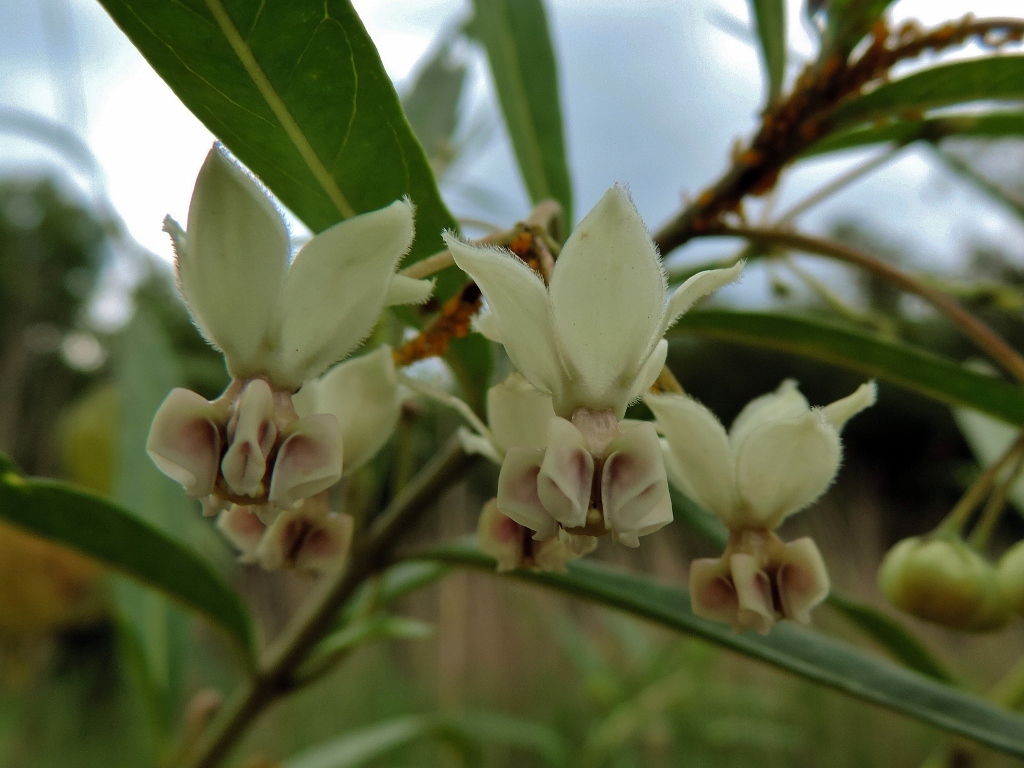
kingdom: Plantae
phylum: Tracheophyta
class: Magnoliopsida
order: Gentianales
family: Apocynaceae
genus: Gomphocarpus
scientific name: Gomphocarpus physocarpus
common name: Balloon cotton bush
